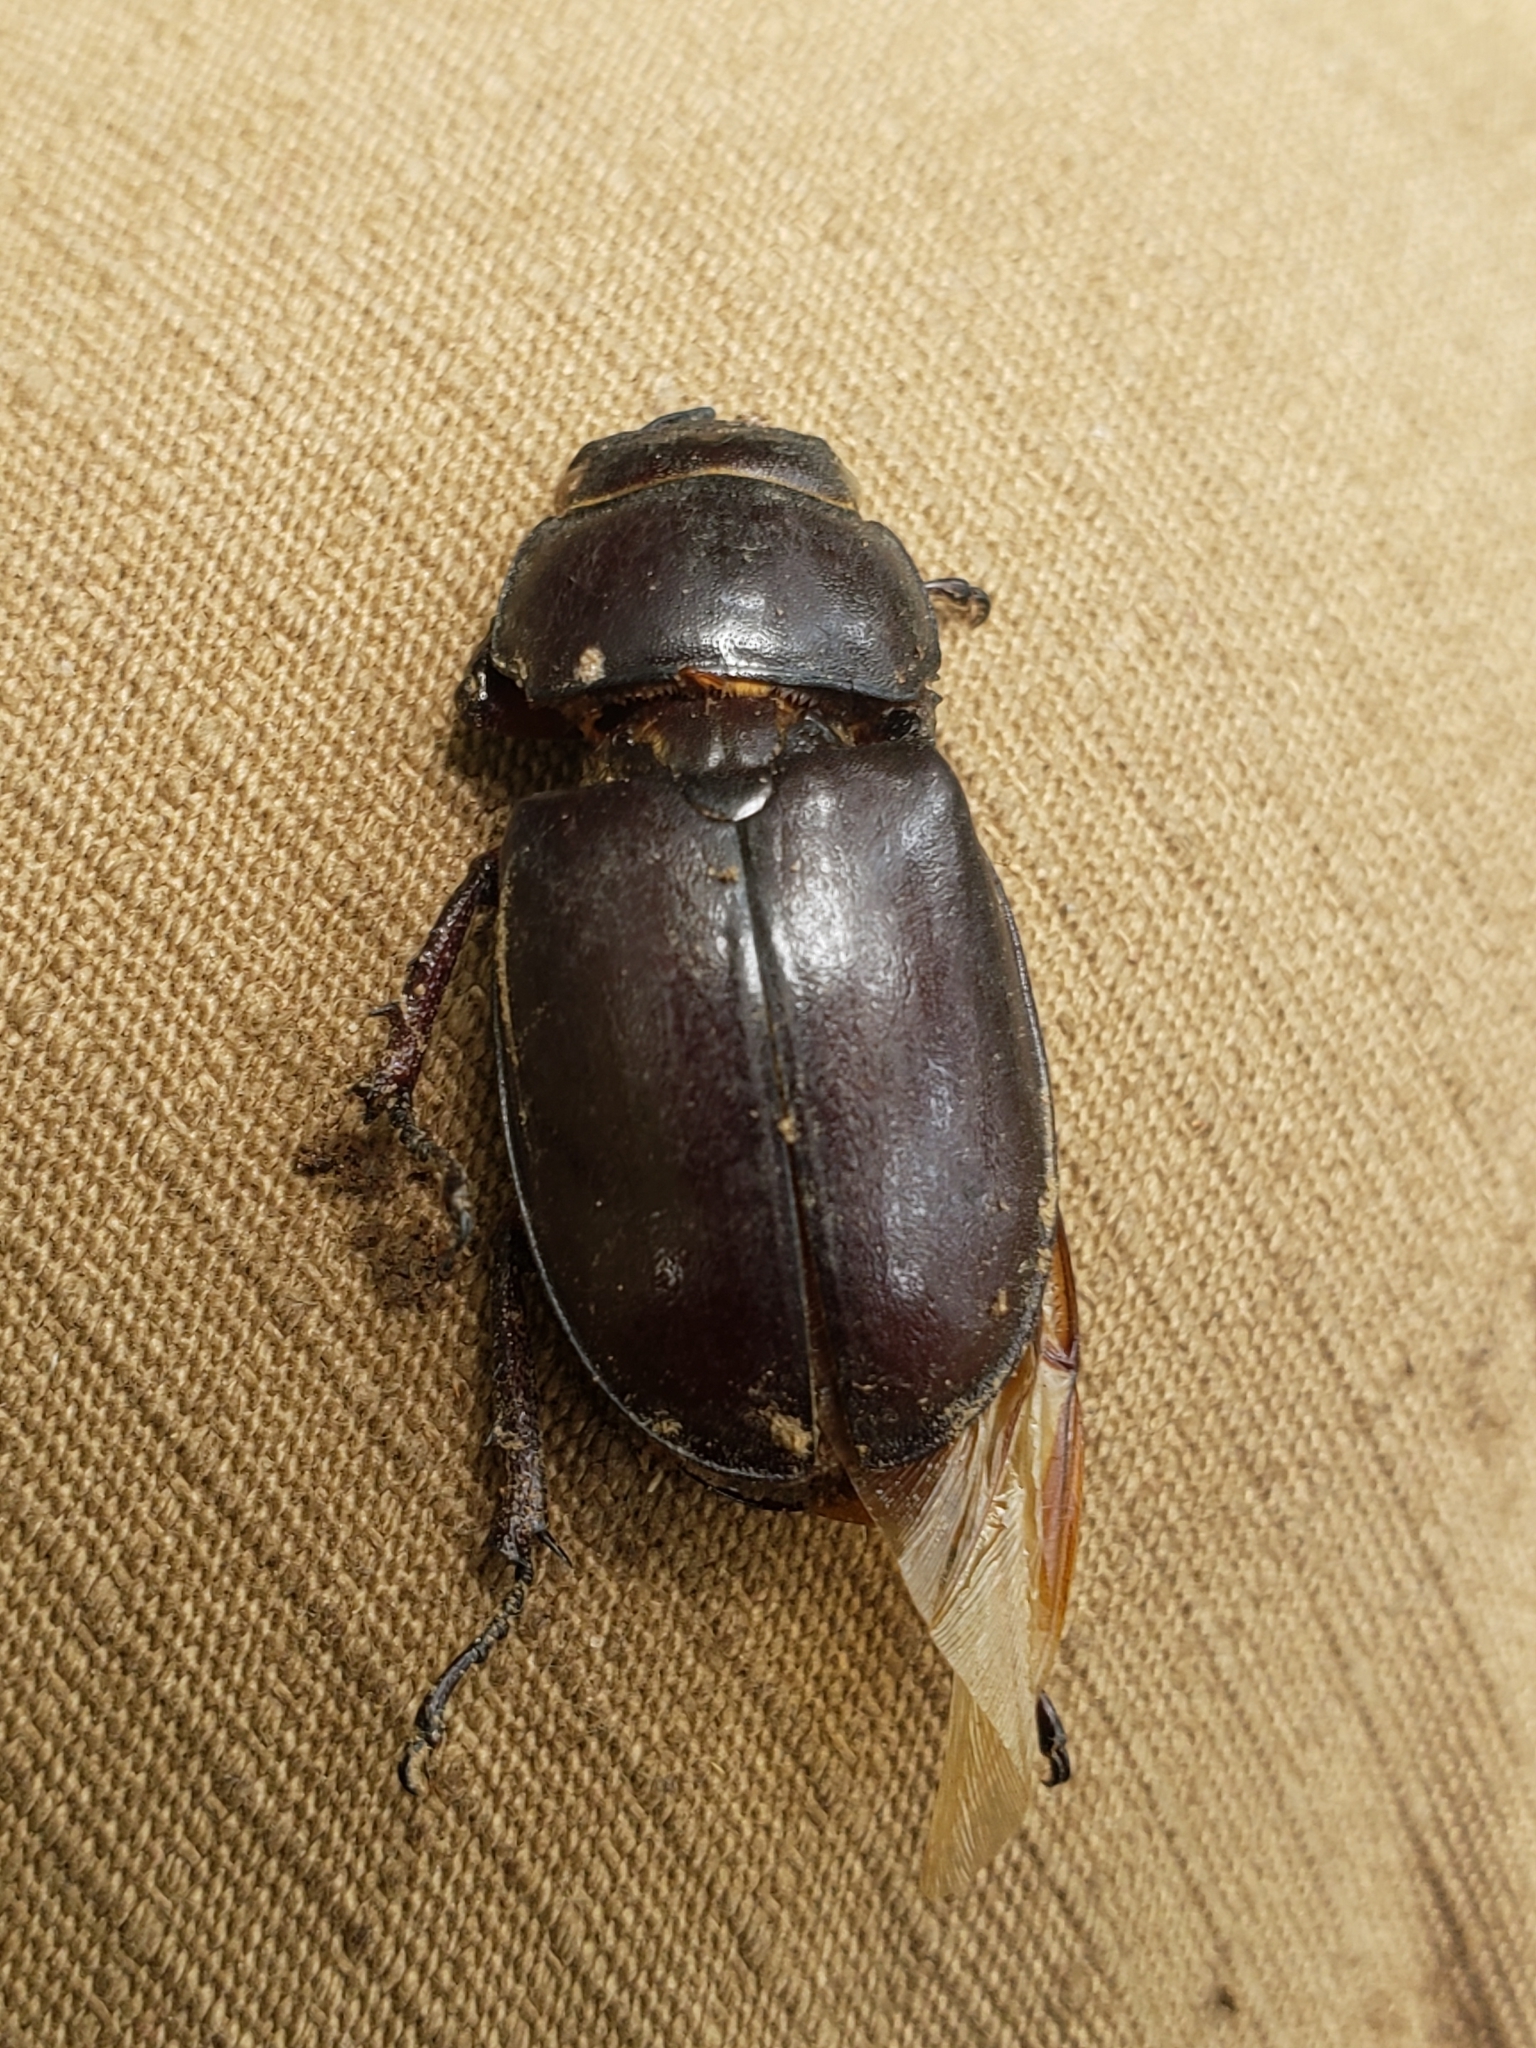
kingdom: Animalia
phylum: Arthropoda
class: Insecta
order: Coleoptera
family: Lucanidae
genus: Lucanus
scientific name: Lucanus capreolus
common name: Stag beetle
